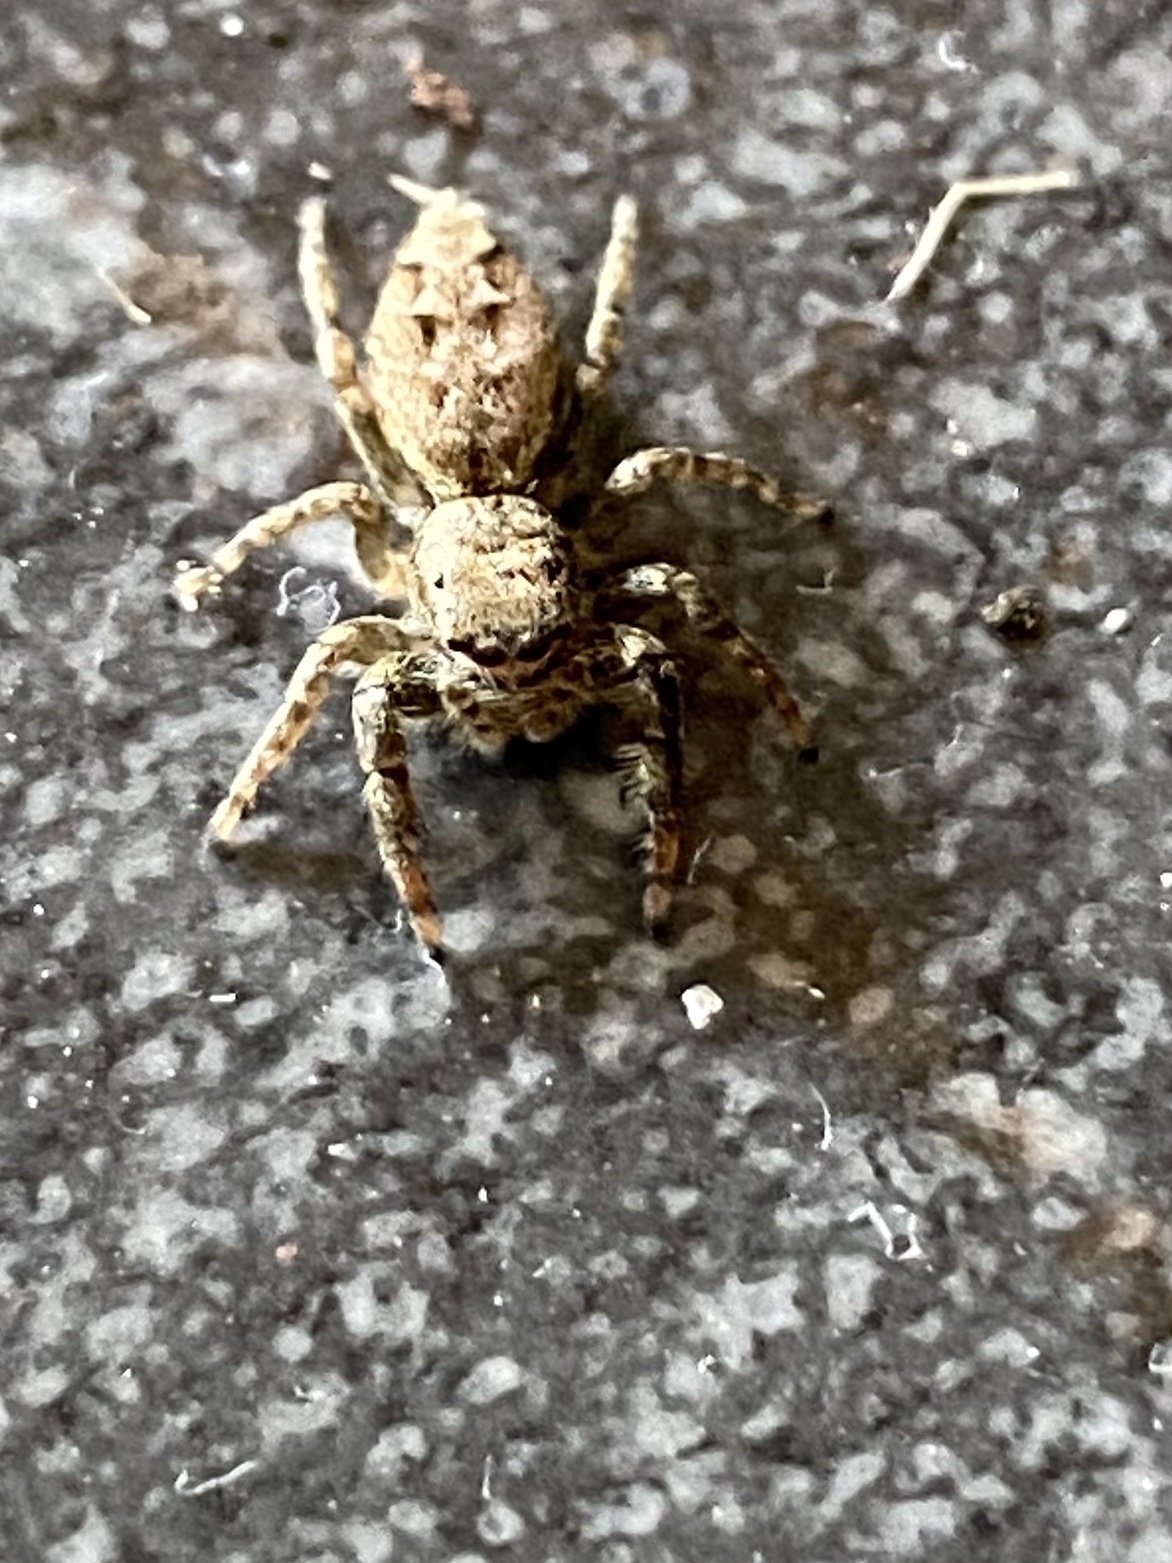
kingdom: Animalia
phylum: Arthropoda
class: Arachnida
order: Araneae
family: Salticidae
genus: Marpissa
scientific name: Marpissa muscosa
